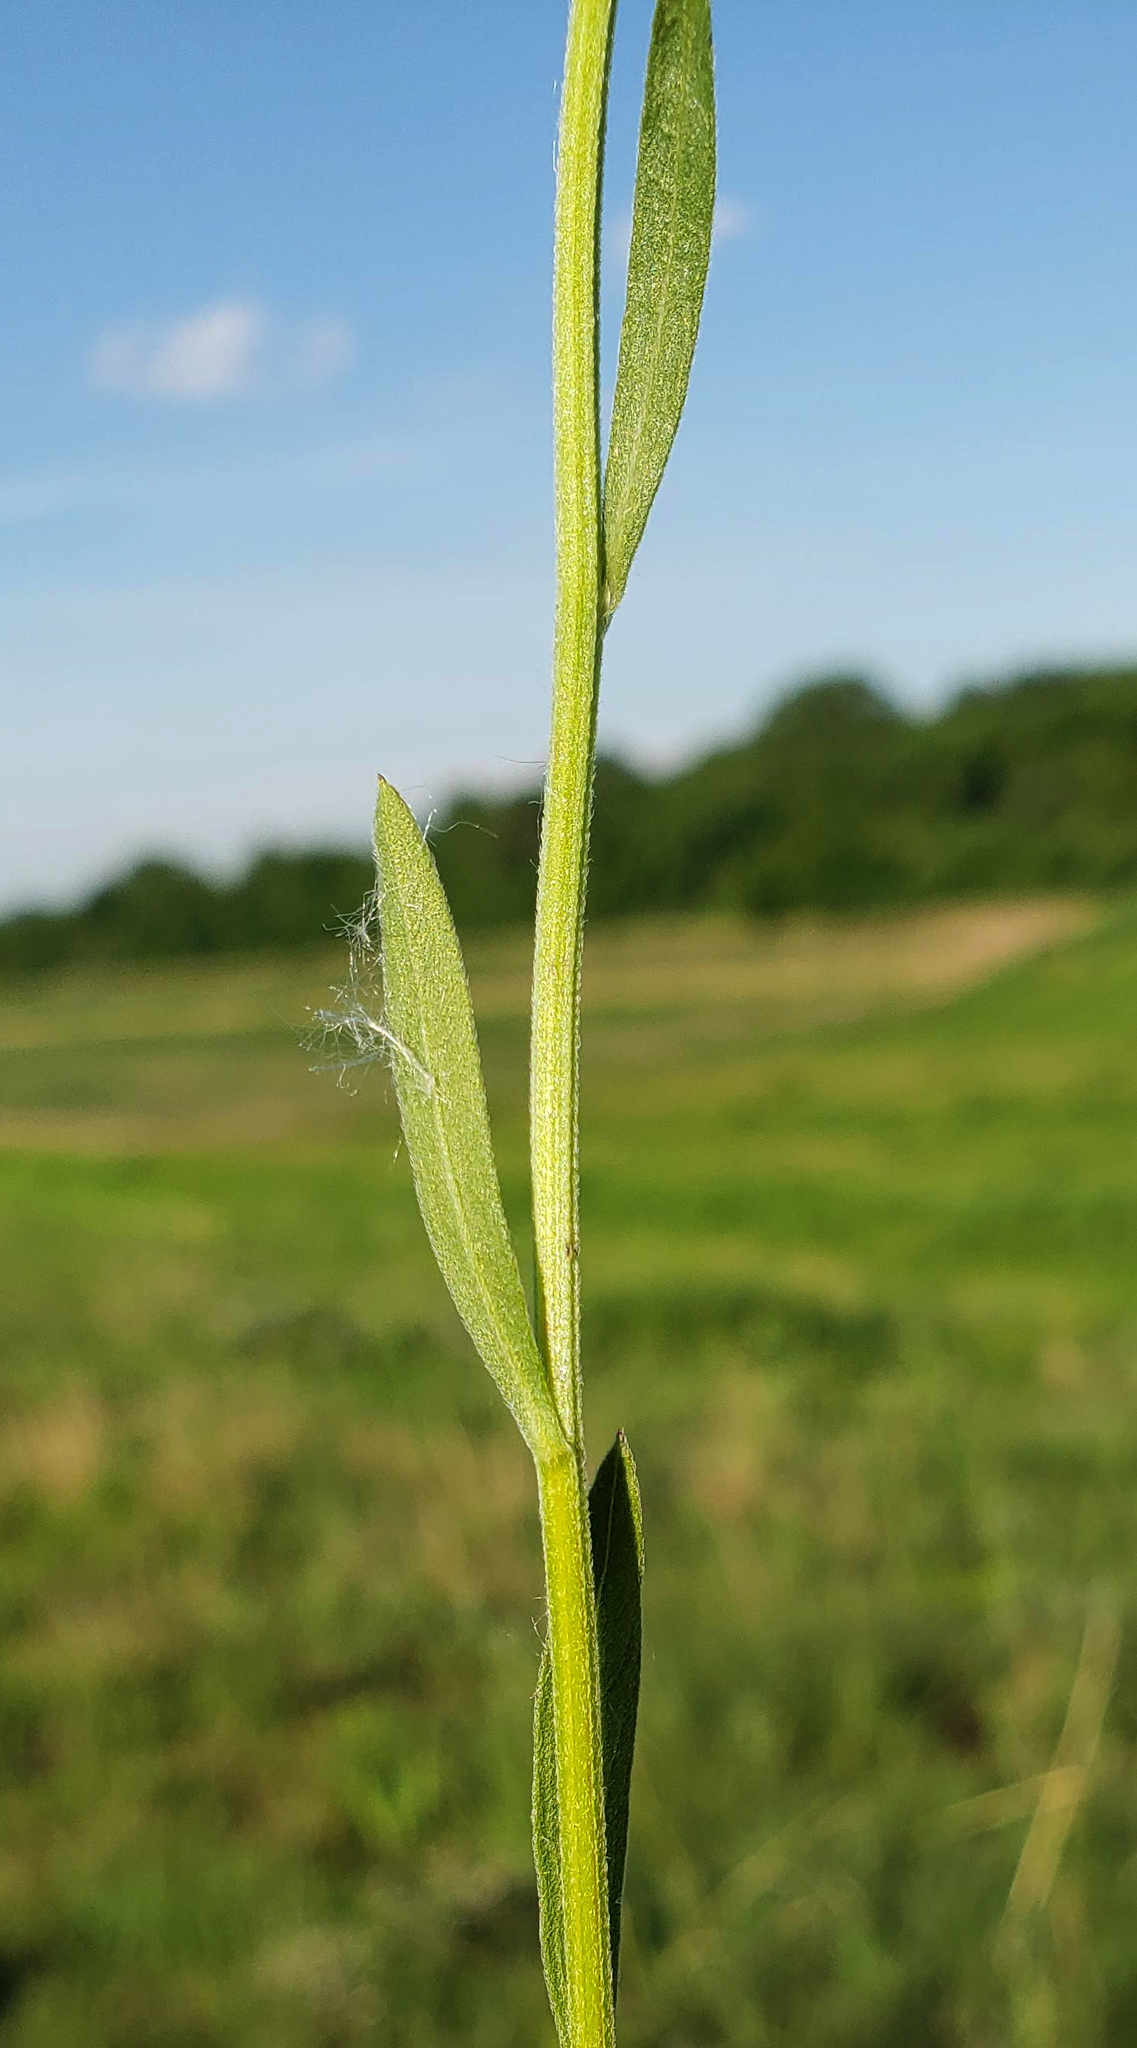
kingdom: Plantae
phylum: Tracheophyta
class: Magnoliopsida
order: Asterales
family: Asteraceae
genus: Erigeron
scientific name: Erigeron strigosus
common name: Common eastern fleabane
